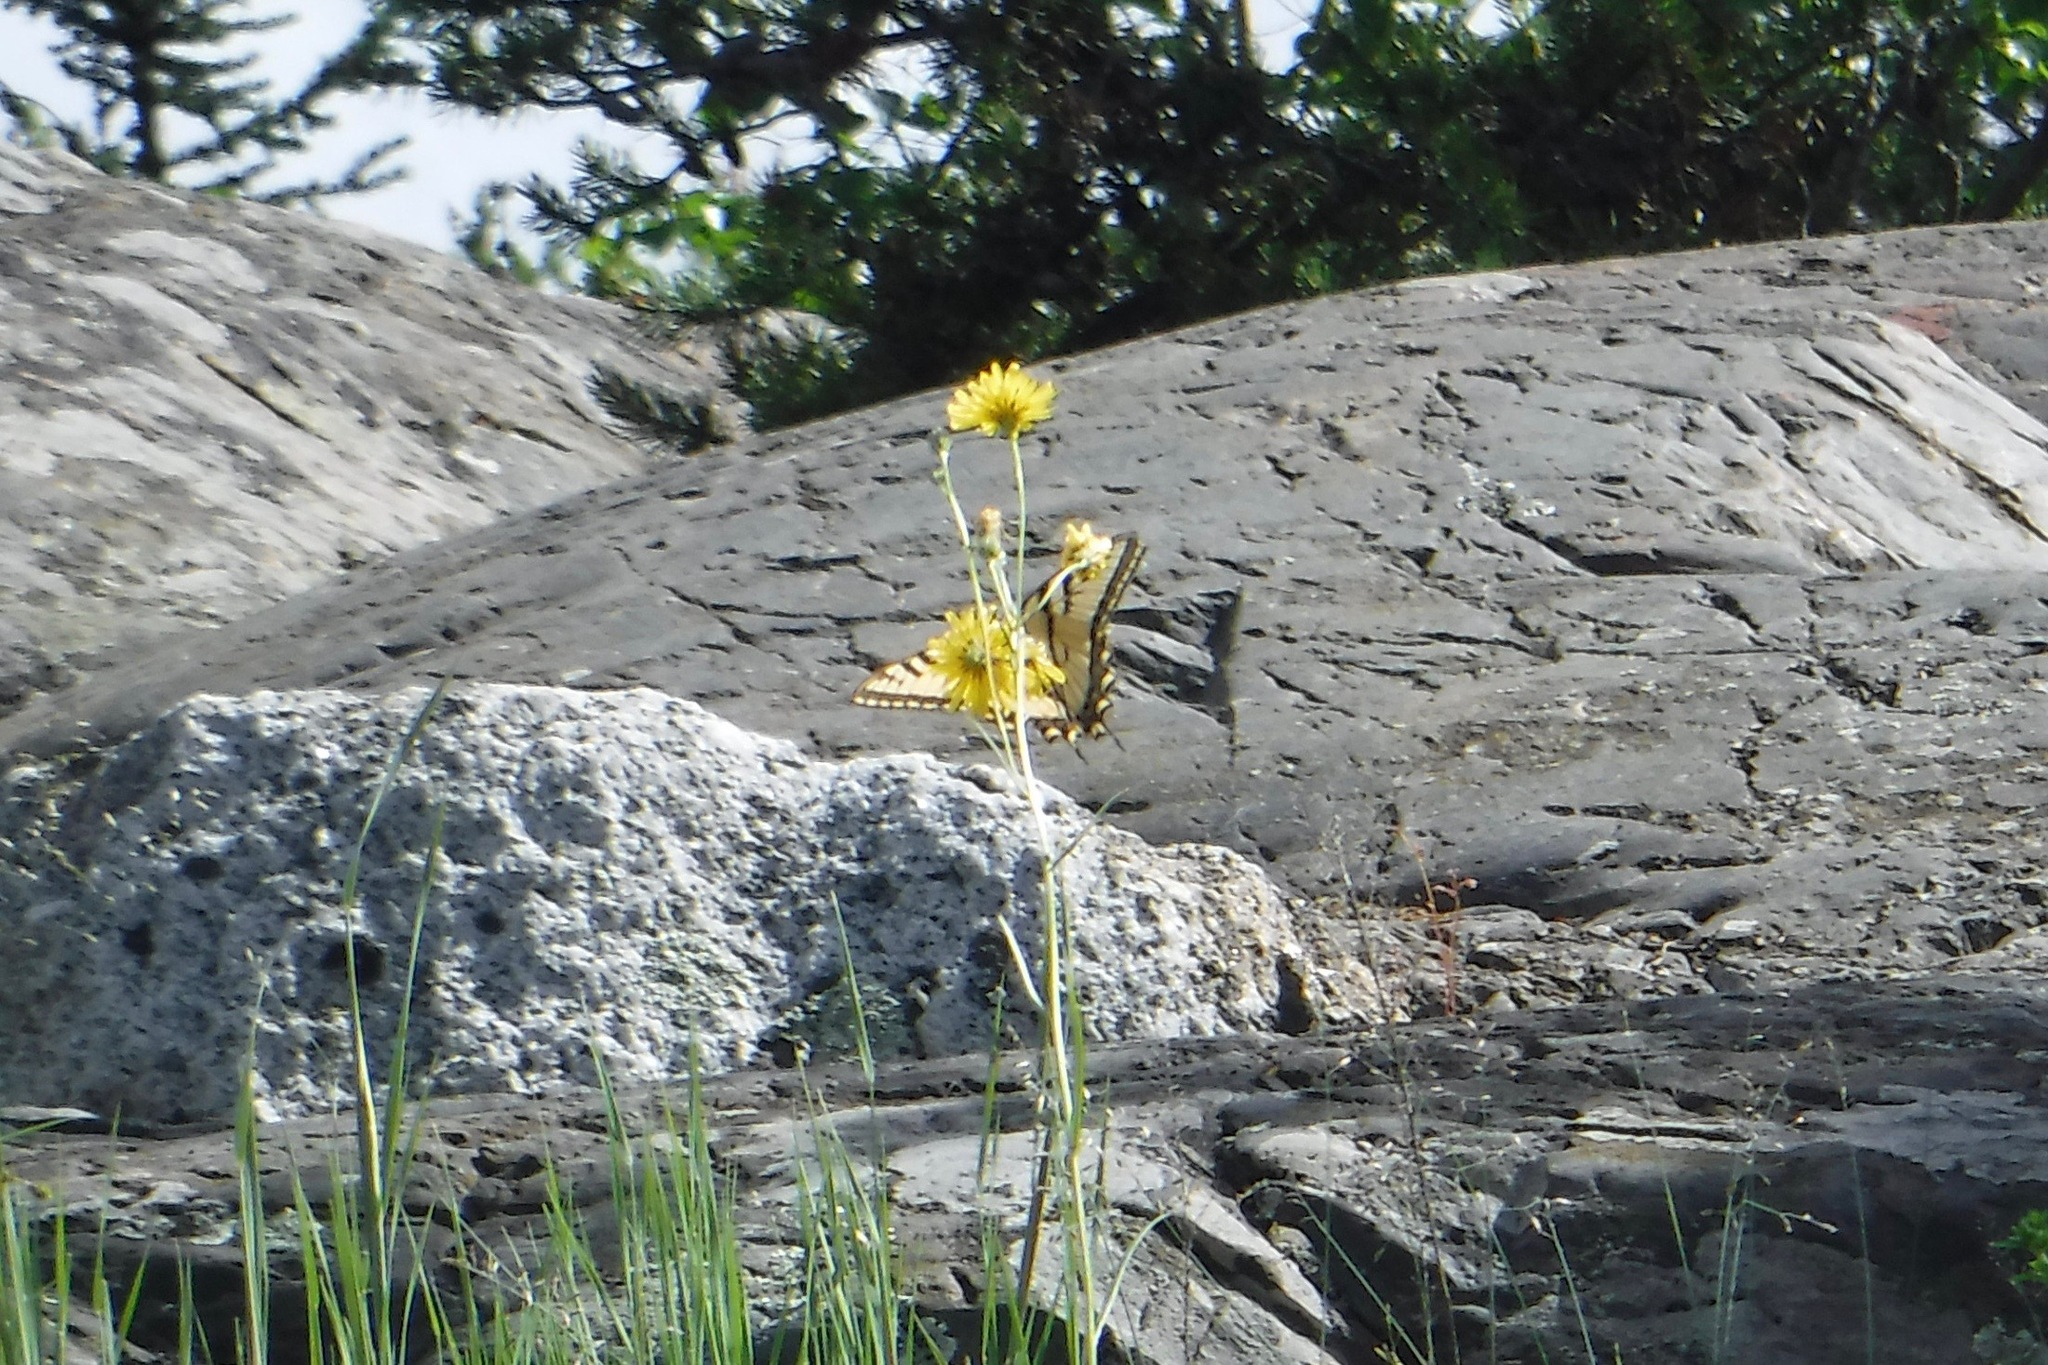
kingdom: Animalia
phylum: Arthropoda
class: Insecta
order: Lepidoptera
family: Papilionidae
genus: Papilio
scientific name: Papilio canadensis
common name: Canadian tiger swallowtail
